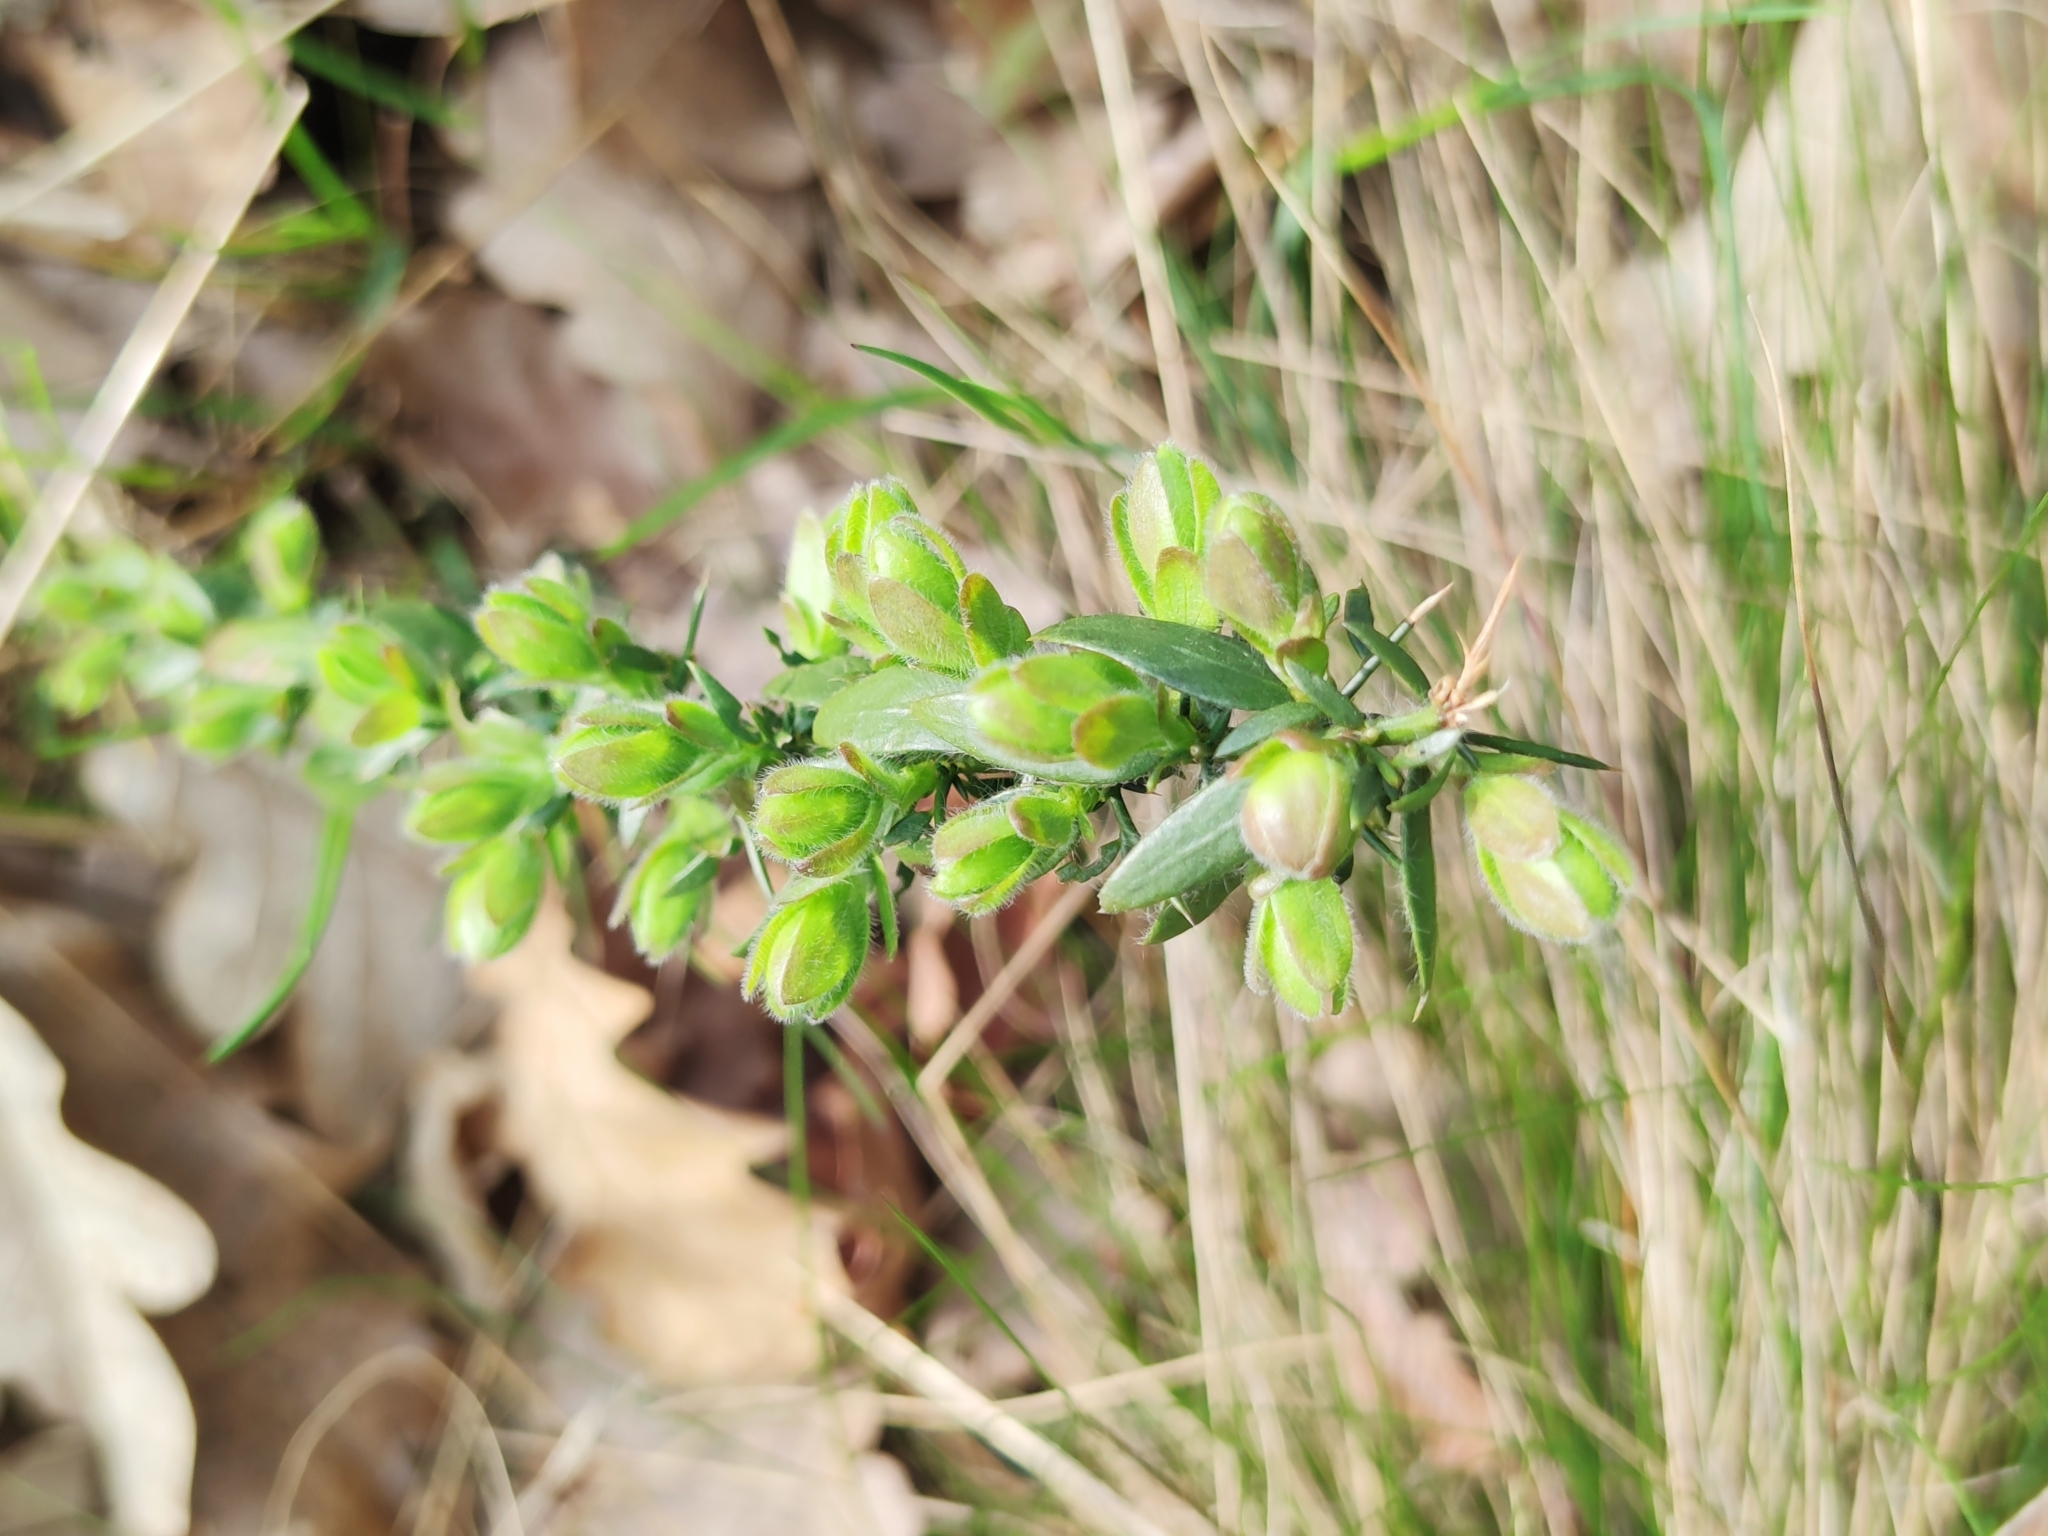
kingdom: Plantae
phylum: Tracheophyta
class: Magnoliopsida
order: Fabales
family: Fabaceae
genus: Genista
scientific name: Genista germanica
